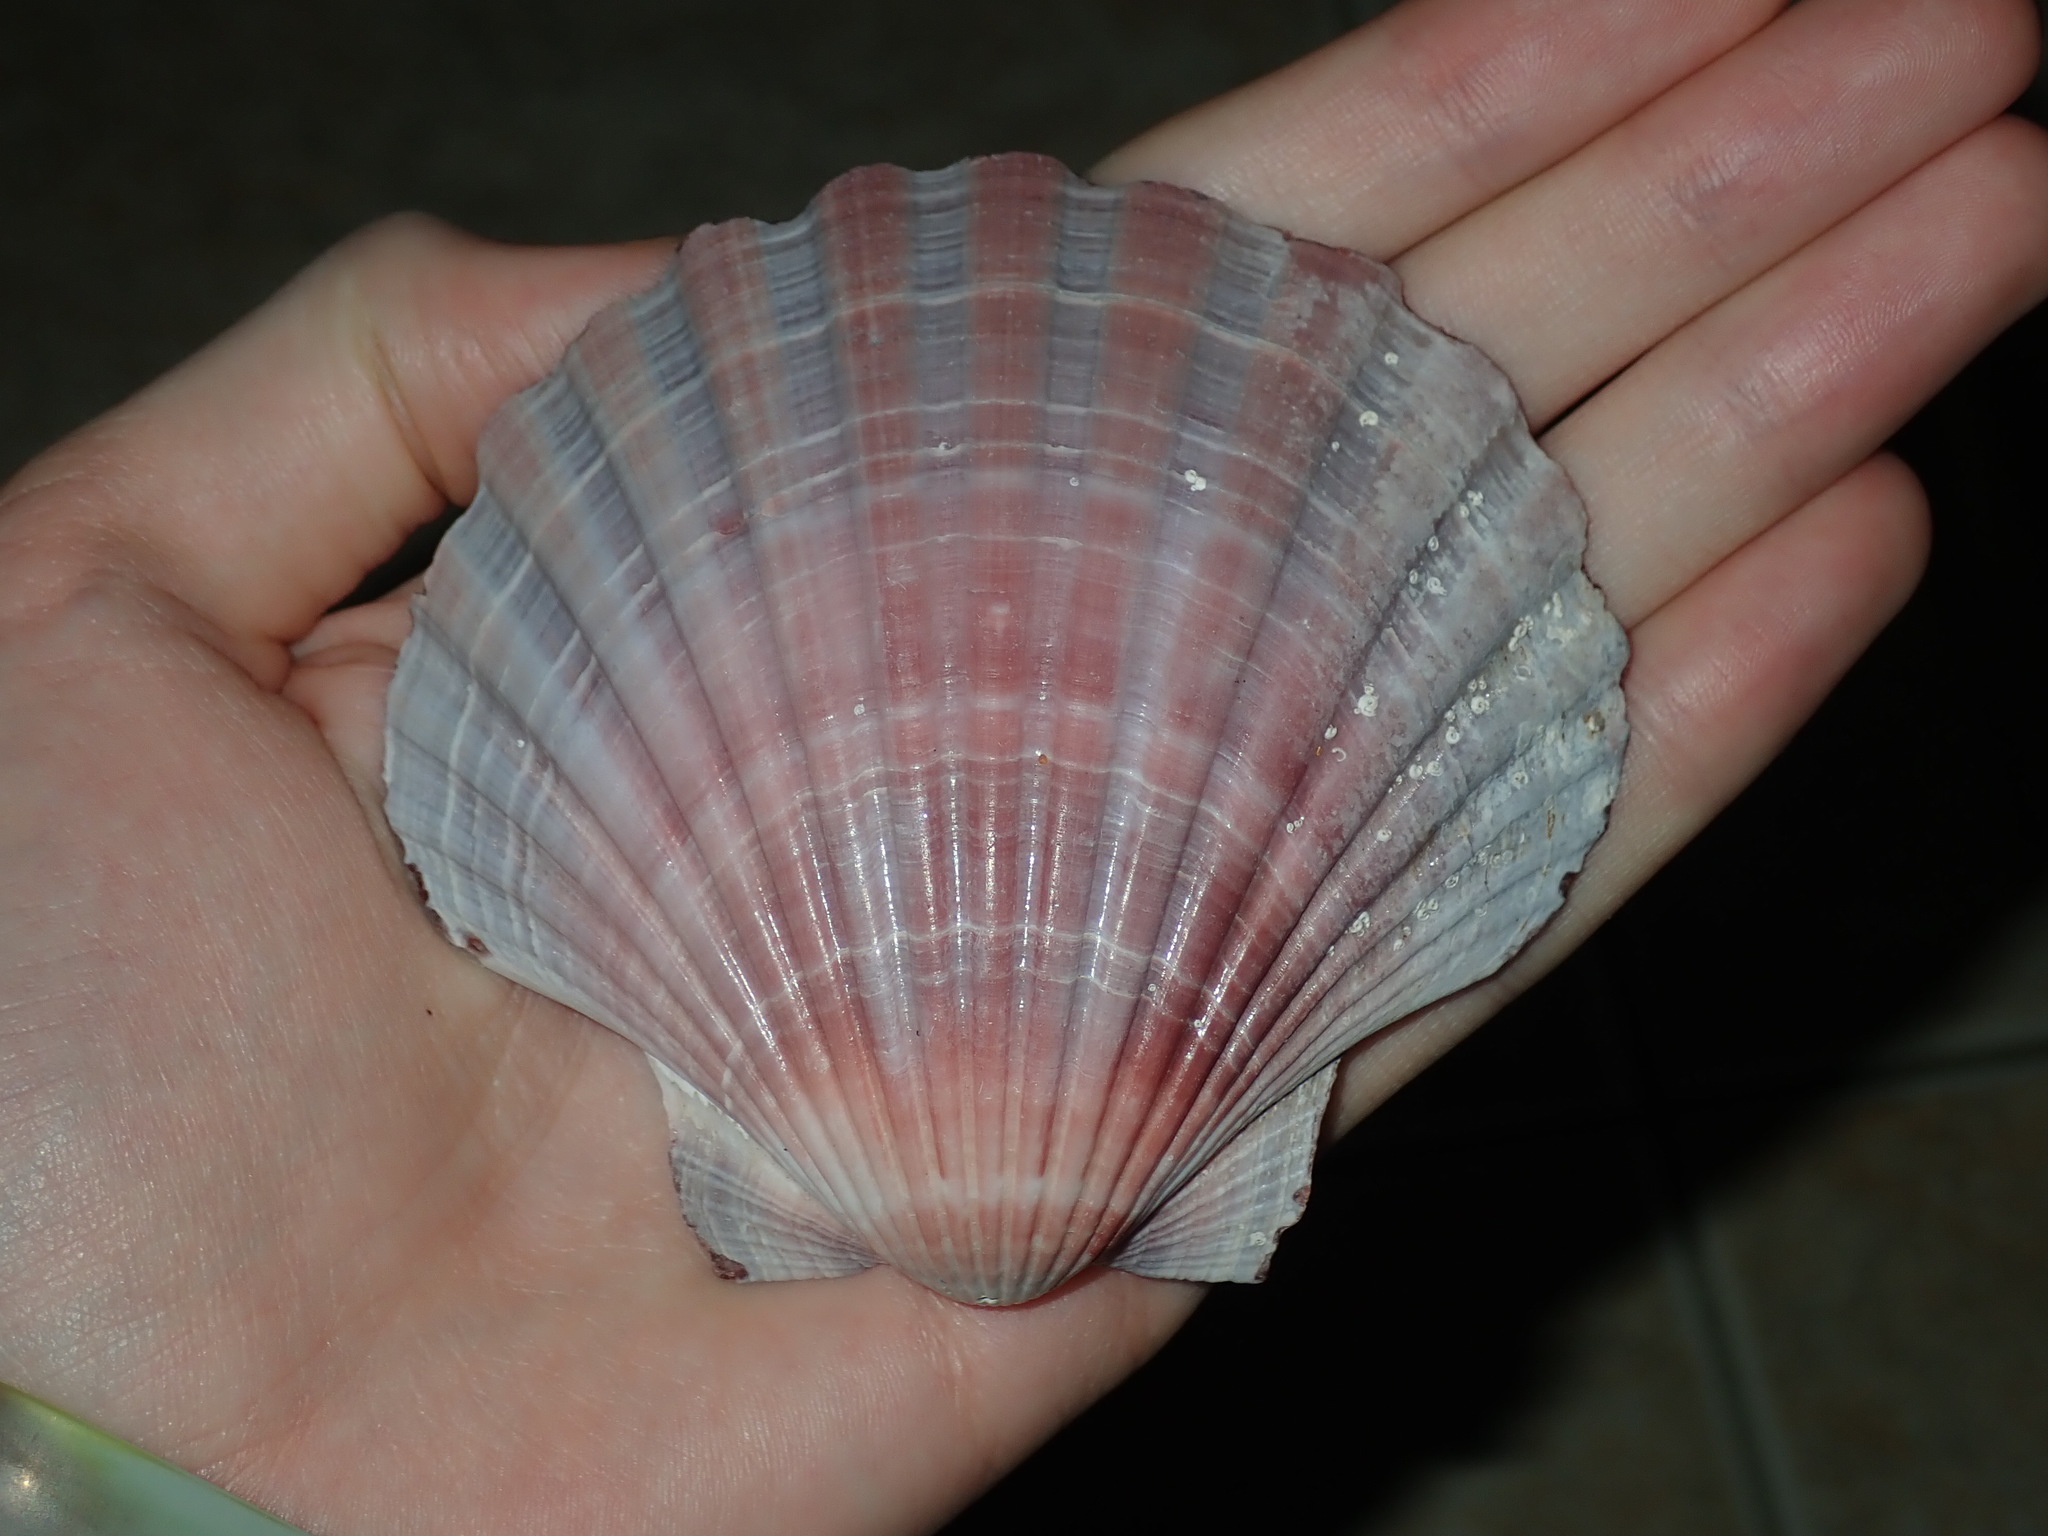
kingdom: Animalia
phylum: Mollusca
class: Bivalvia
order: Pectinida
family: Pectinidae
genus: Pecten
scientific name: Pecten fumatus
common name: Australian scallop
